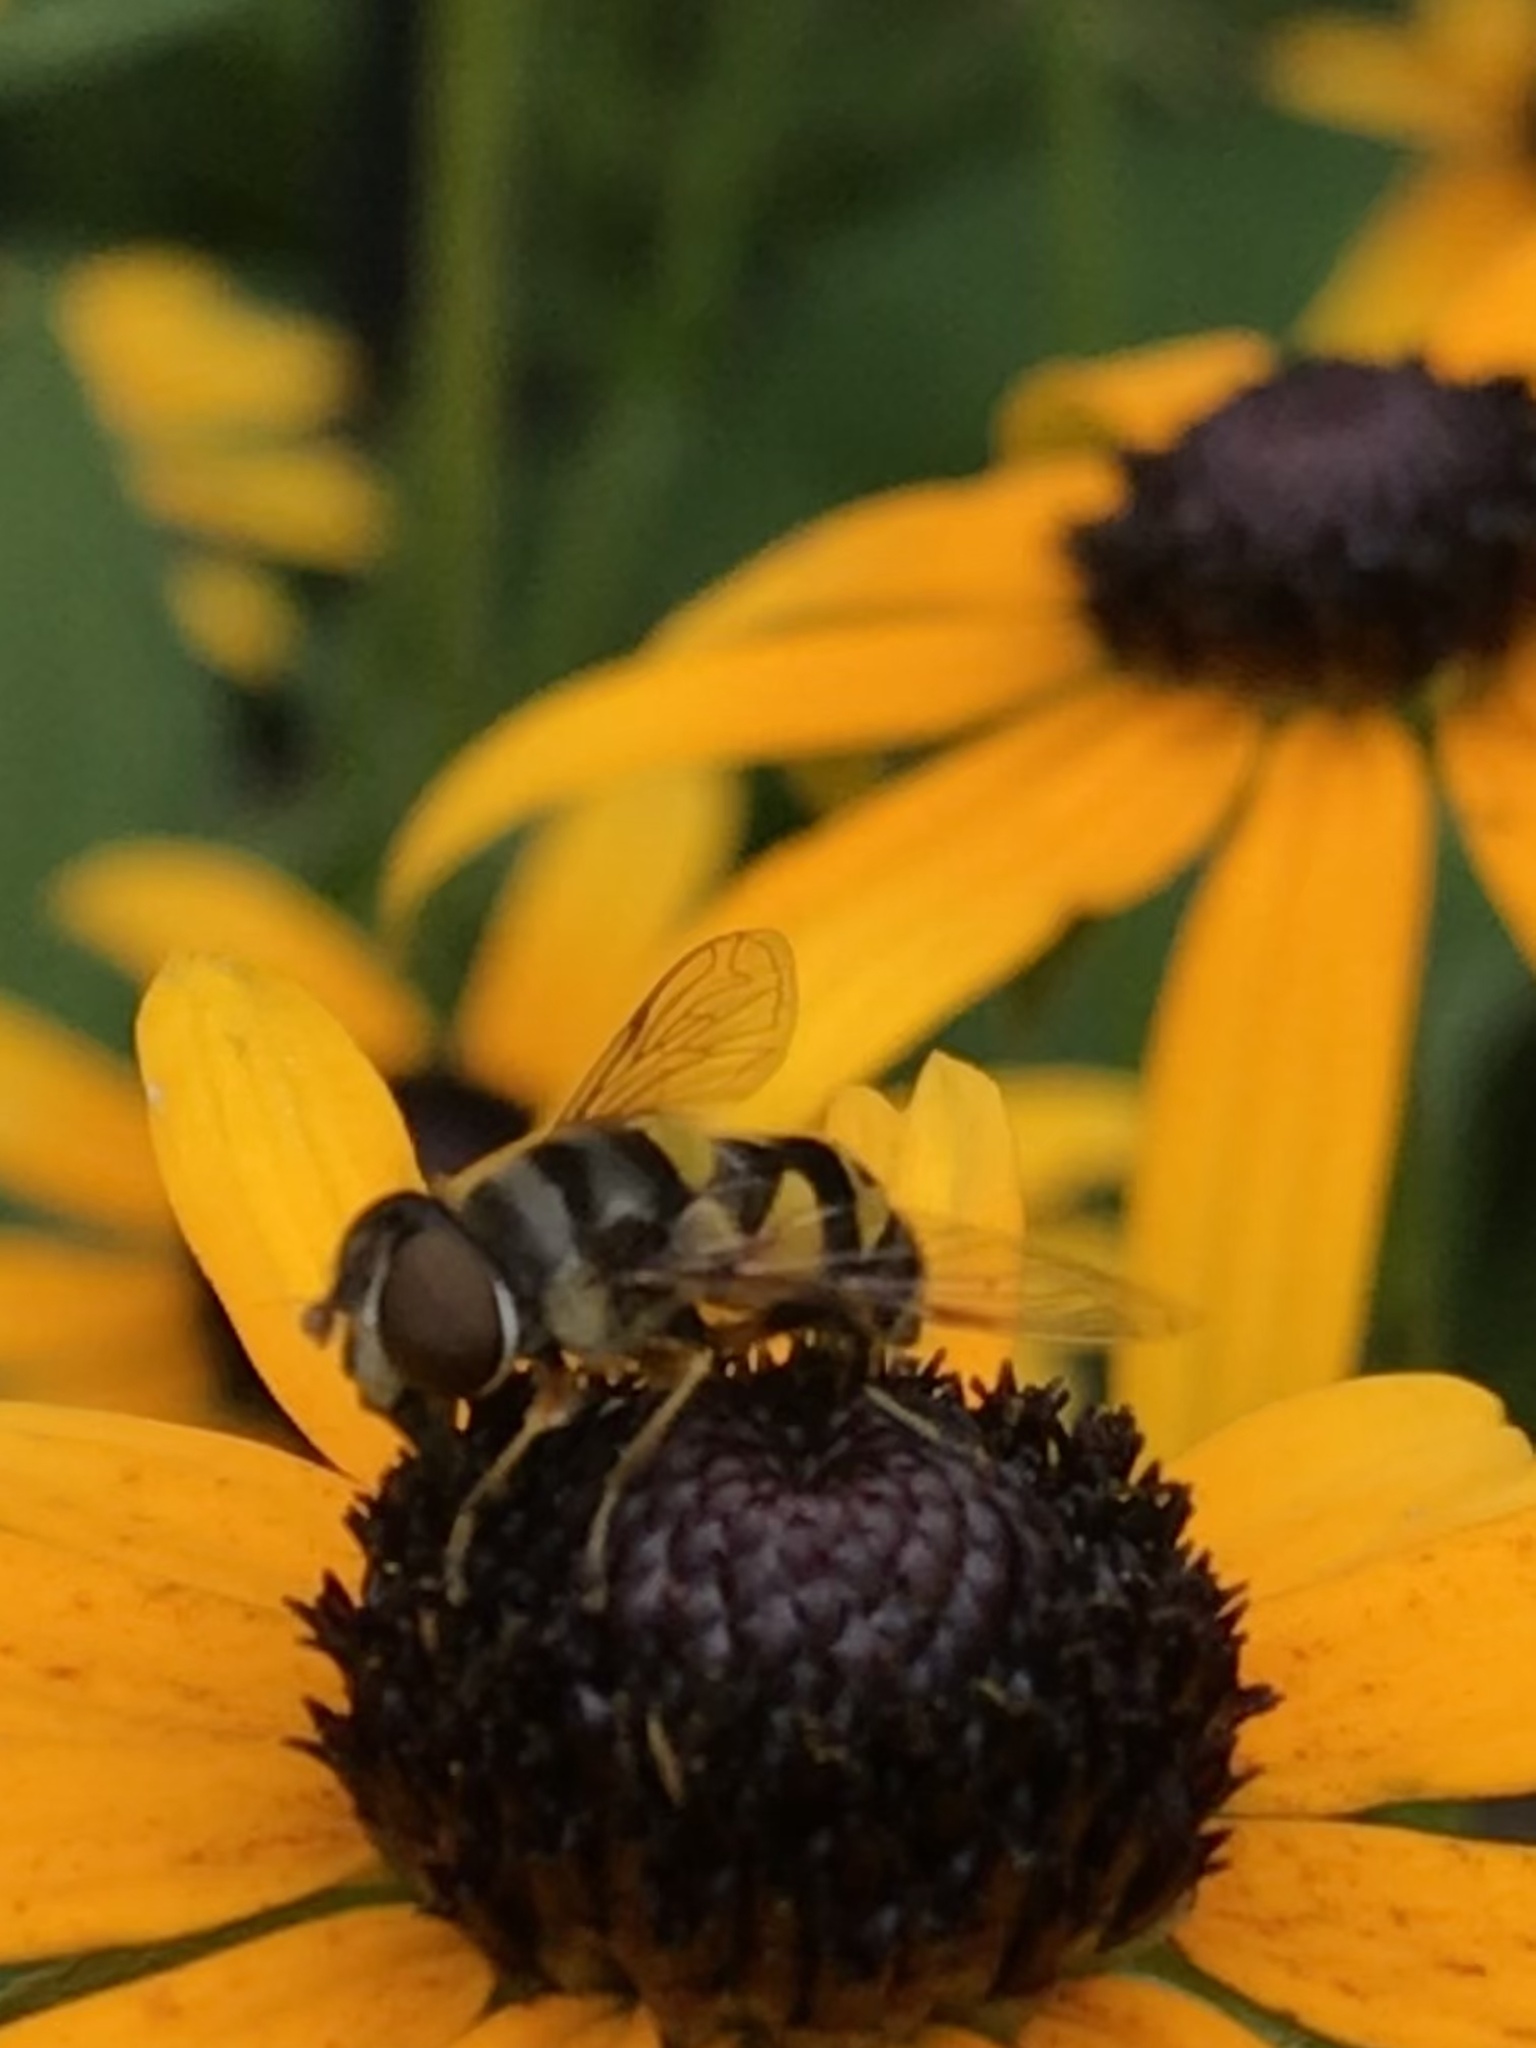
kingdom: Animalia
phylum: Arthropoda
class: Insecta
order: Diptera
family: Syrphidae
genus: Eristalis
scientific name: Eristalis transversa
